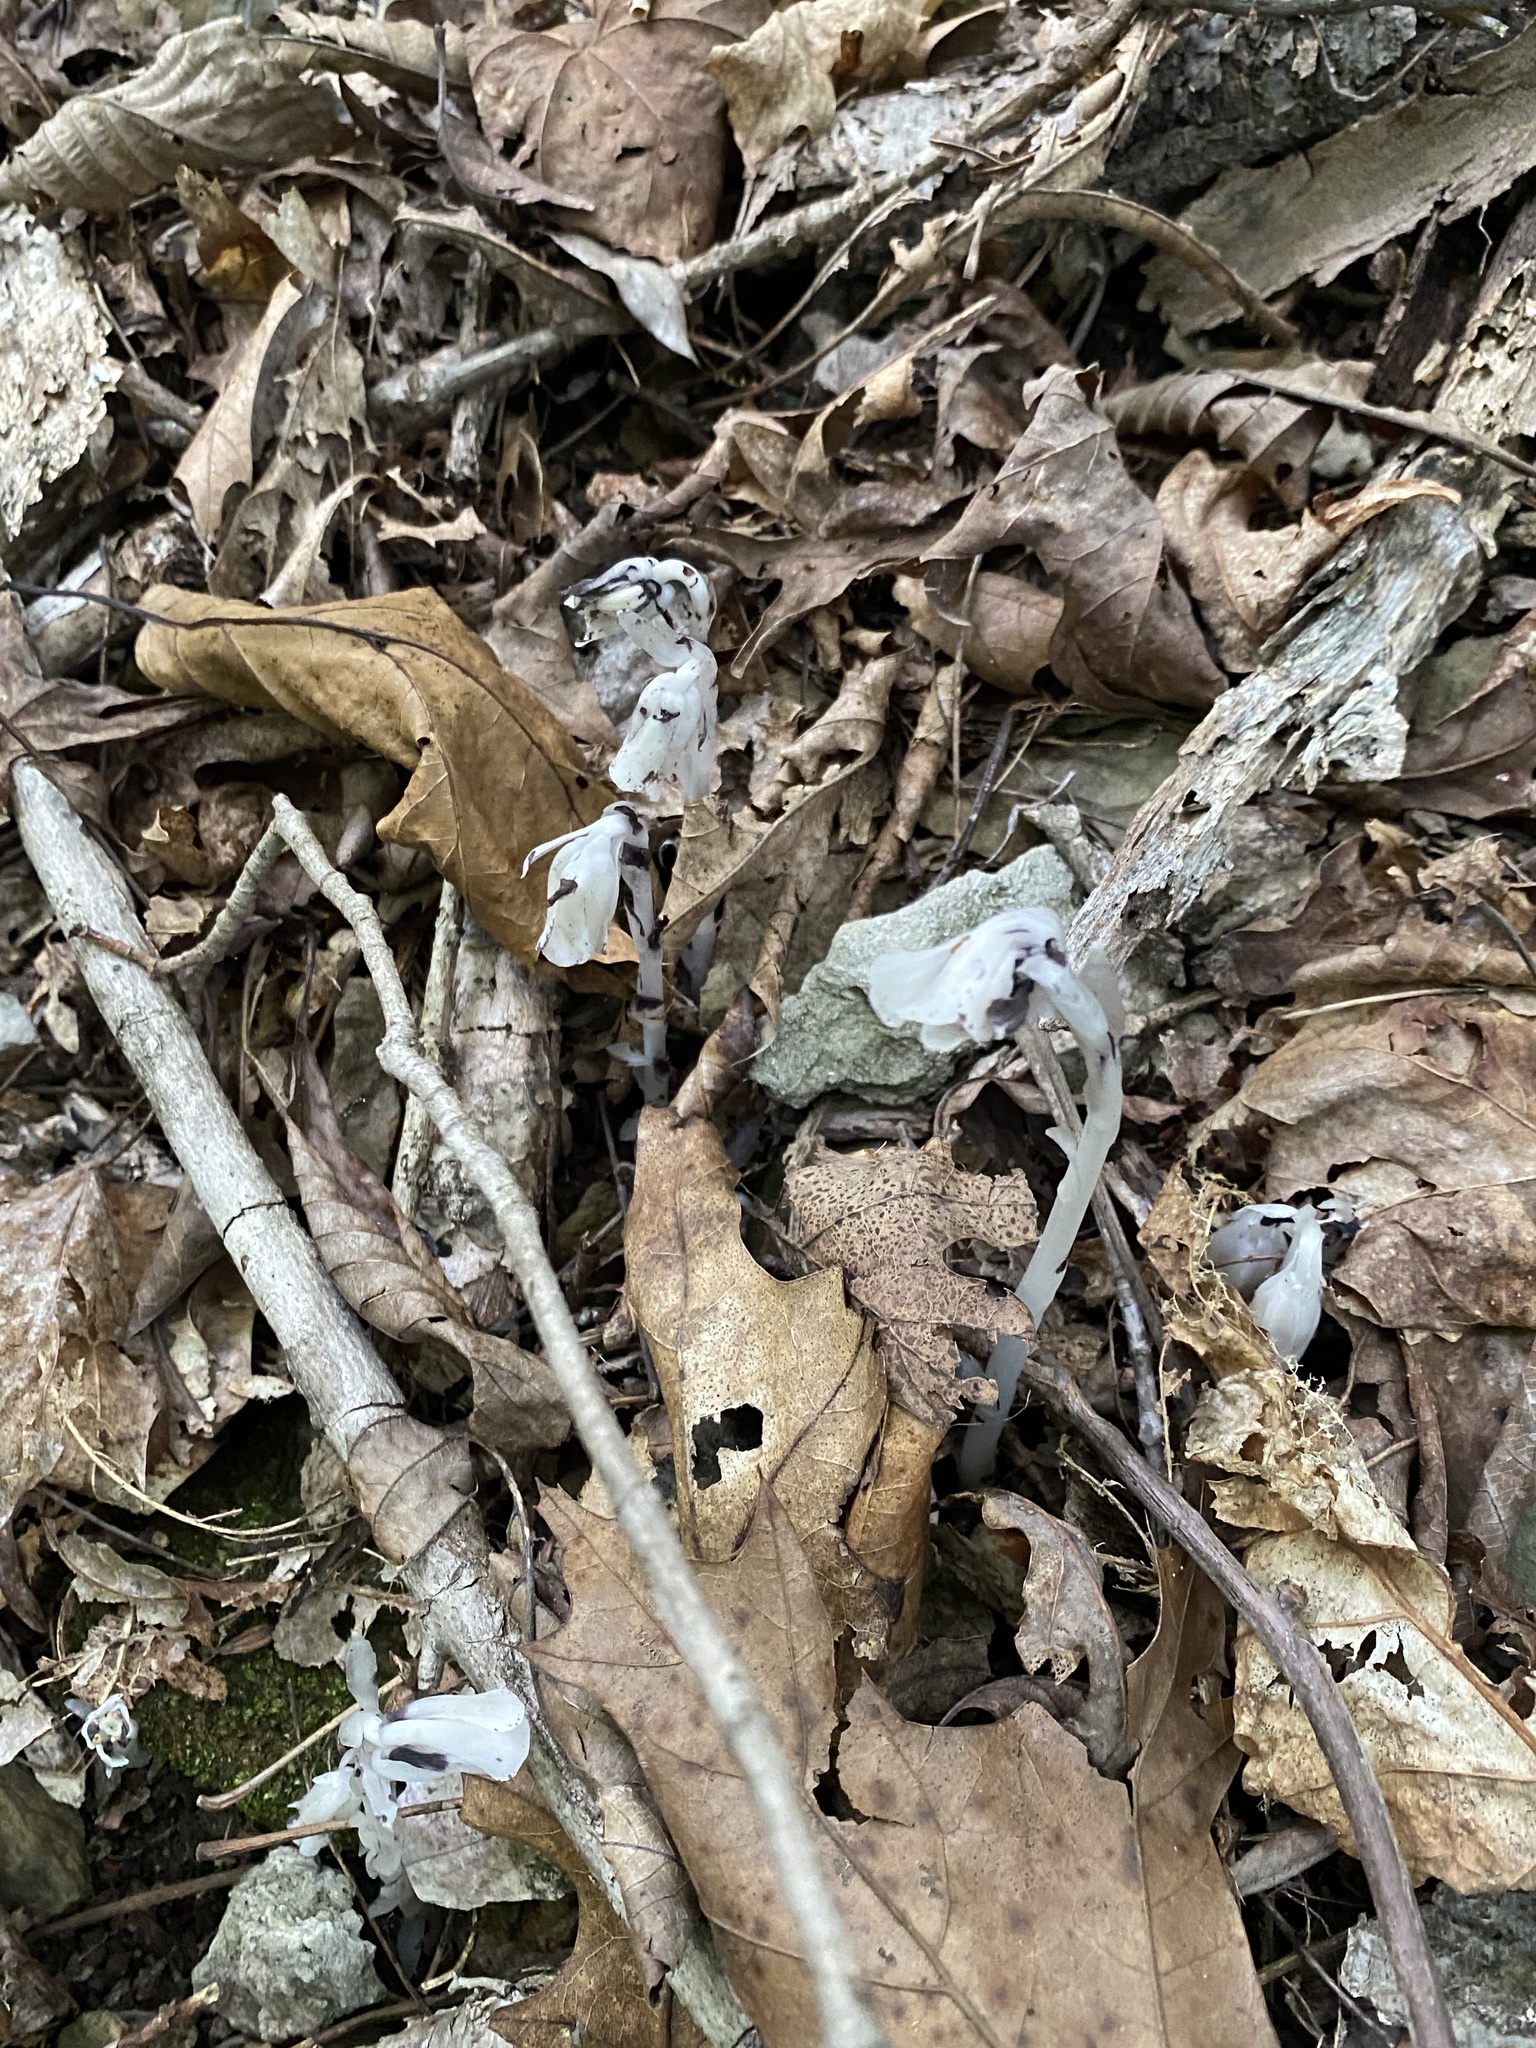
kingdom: Plantae
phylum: Tracheophyta
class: Magnoliopsida
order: Ericales
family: Ericaceae
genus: Monotropa
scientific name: Monotropa uniflora
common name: Convulsion root
